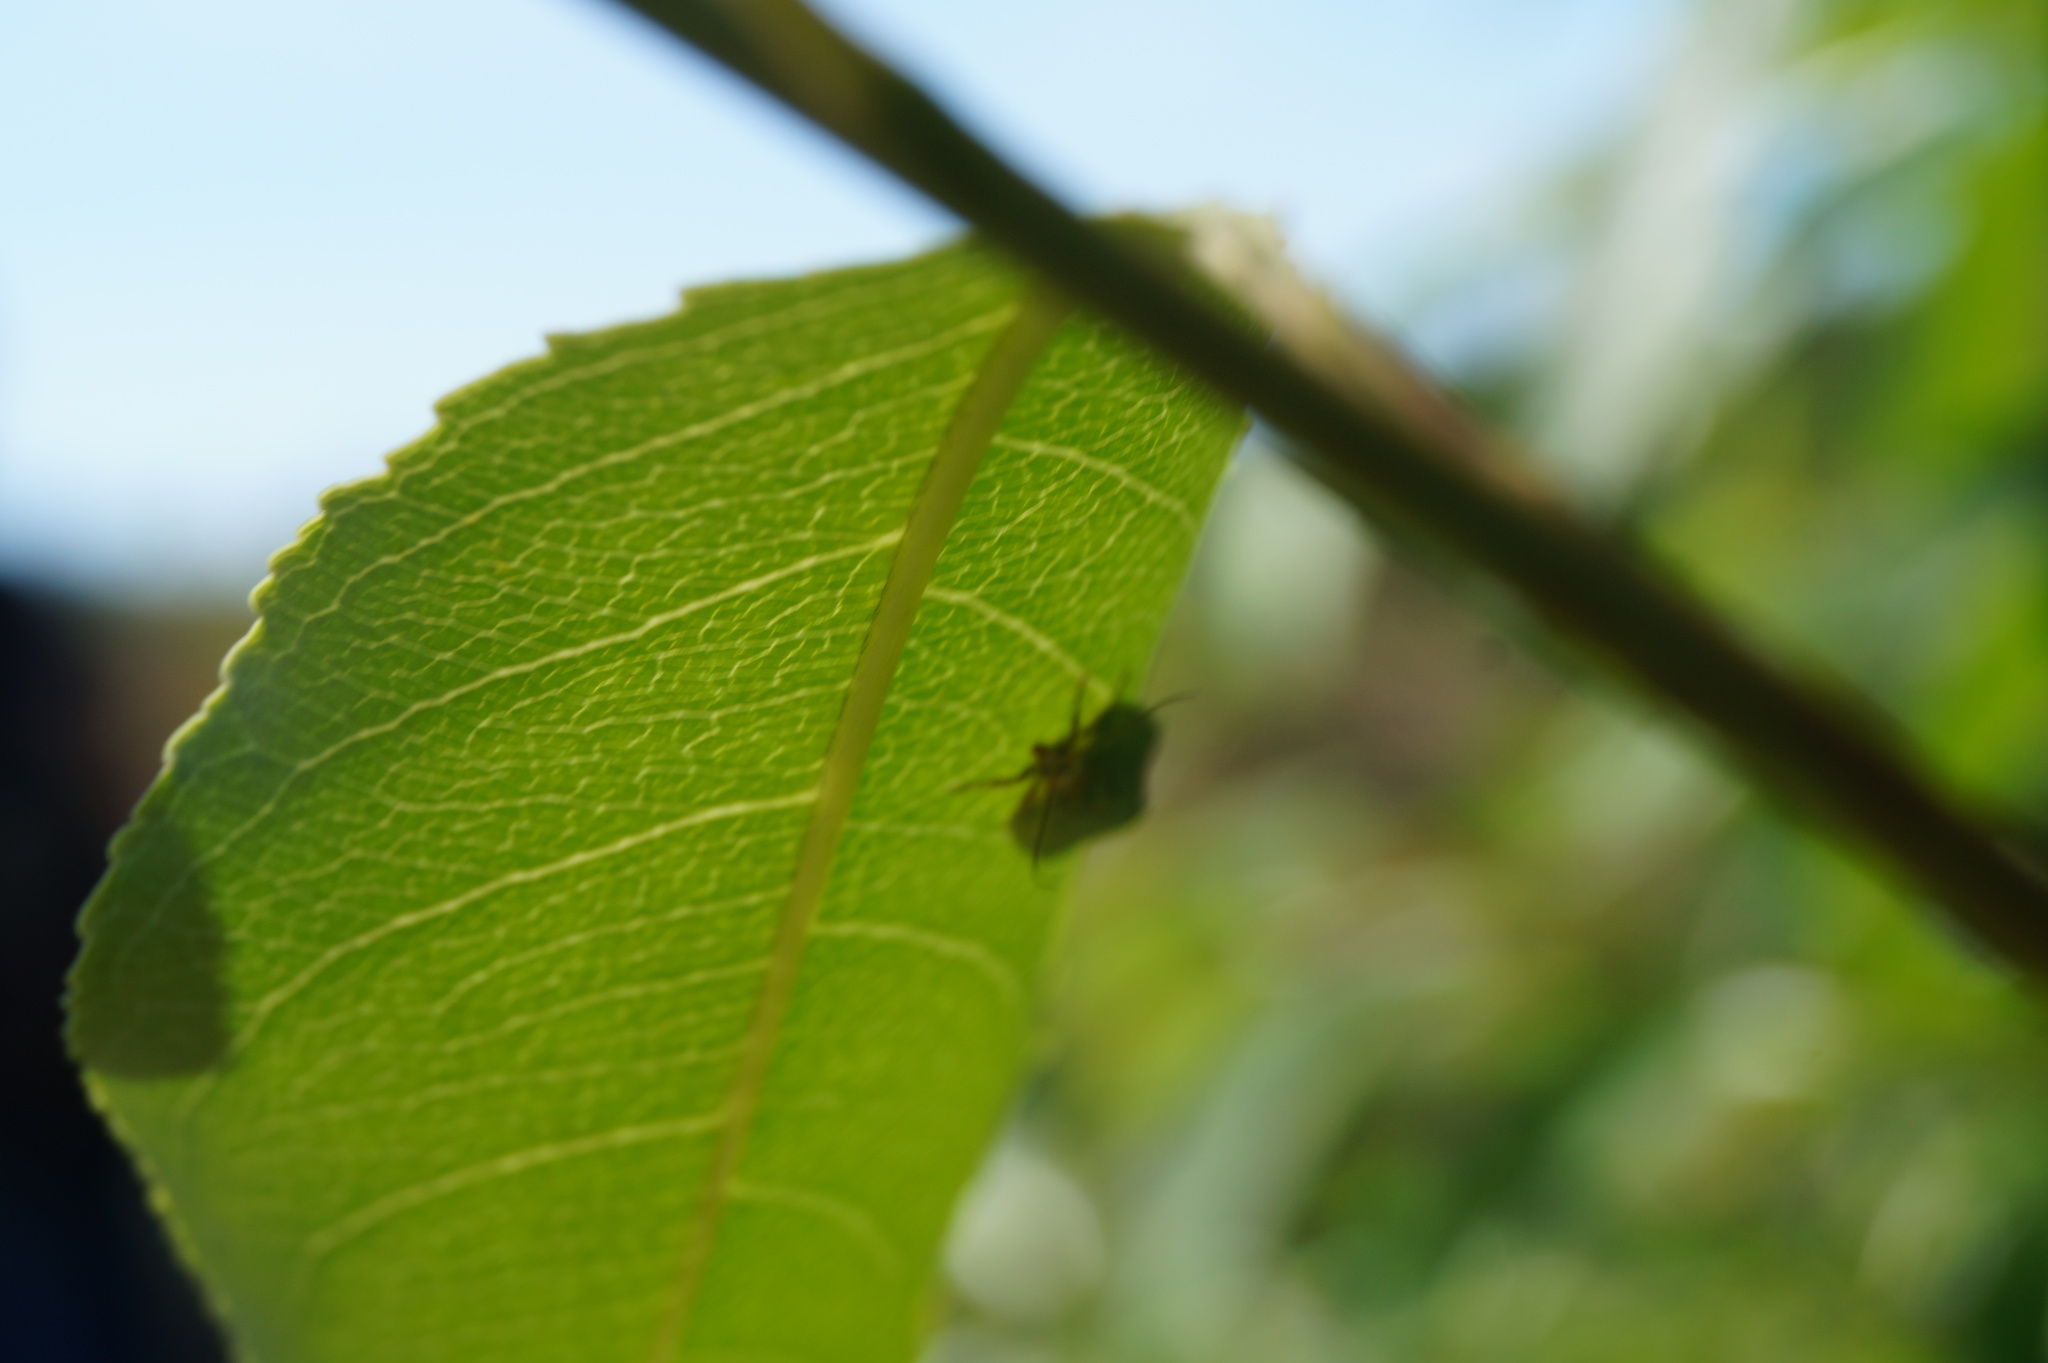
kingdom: Animalia
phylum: Arthropoda
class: Insecta
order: Lepidoptera
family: Tortricidae
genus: Tortrix
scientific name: Tortrix viridana
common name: Green oak tortrix
